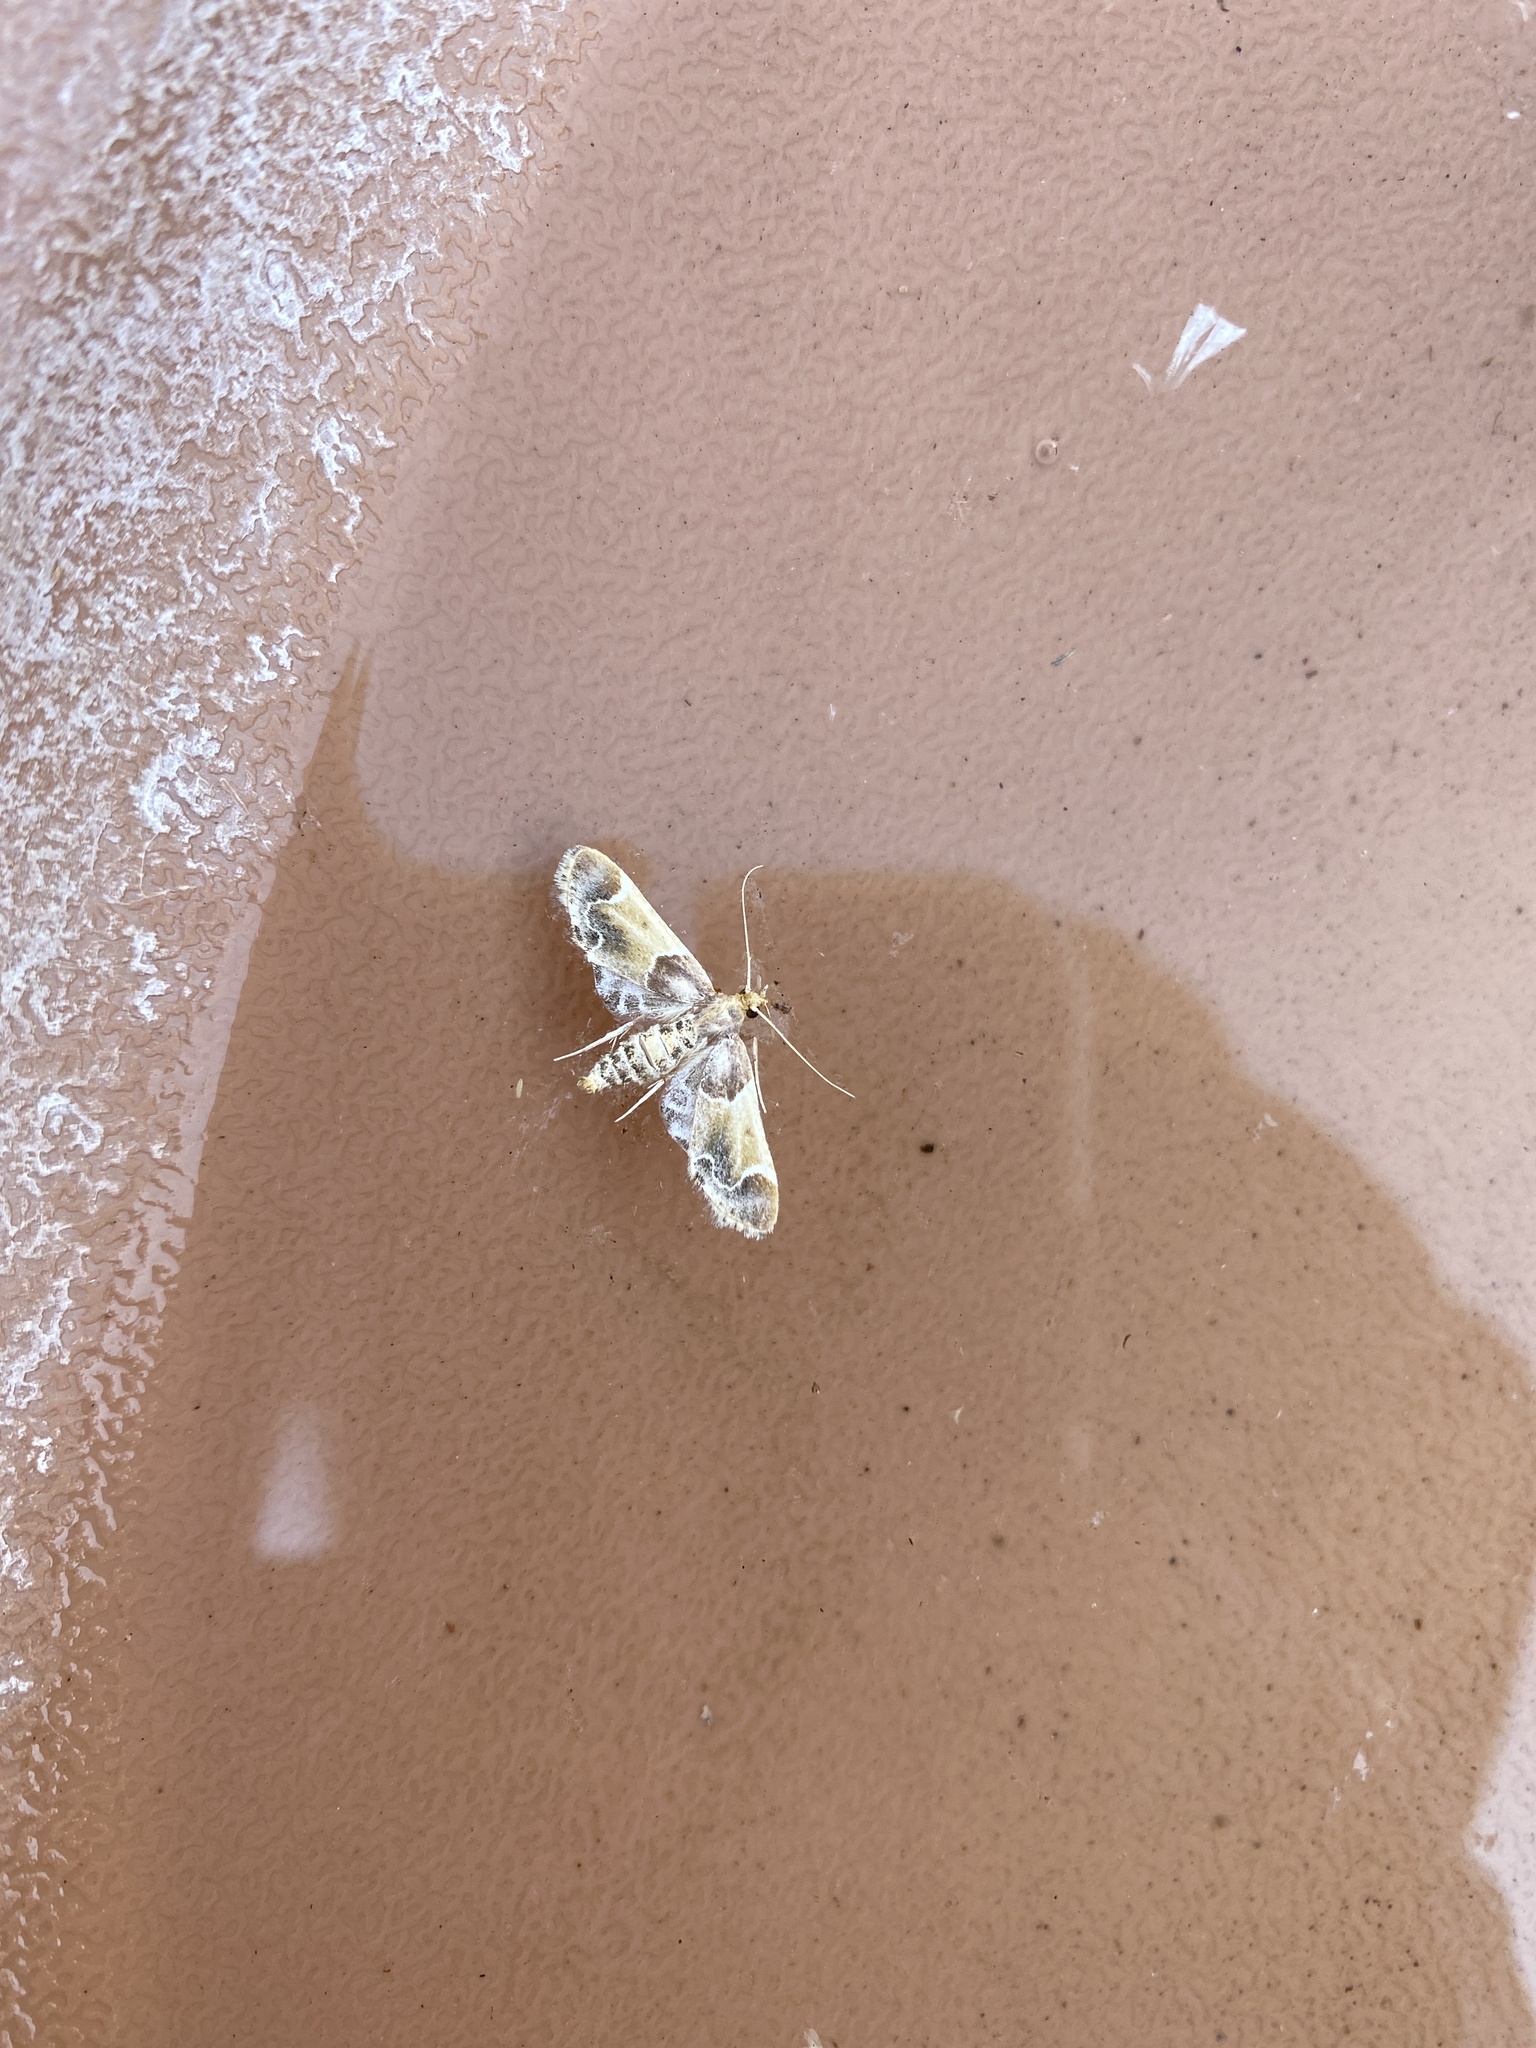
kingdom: Animalia
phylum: Arthropoda
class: Insecta
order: Lepidoptera
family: Pyralidae
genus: Pyralis
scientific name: Pyralis farinalis
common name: Meal moth
